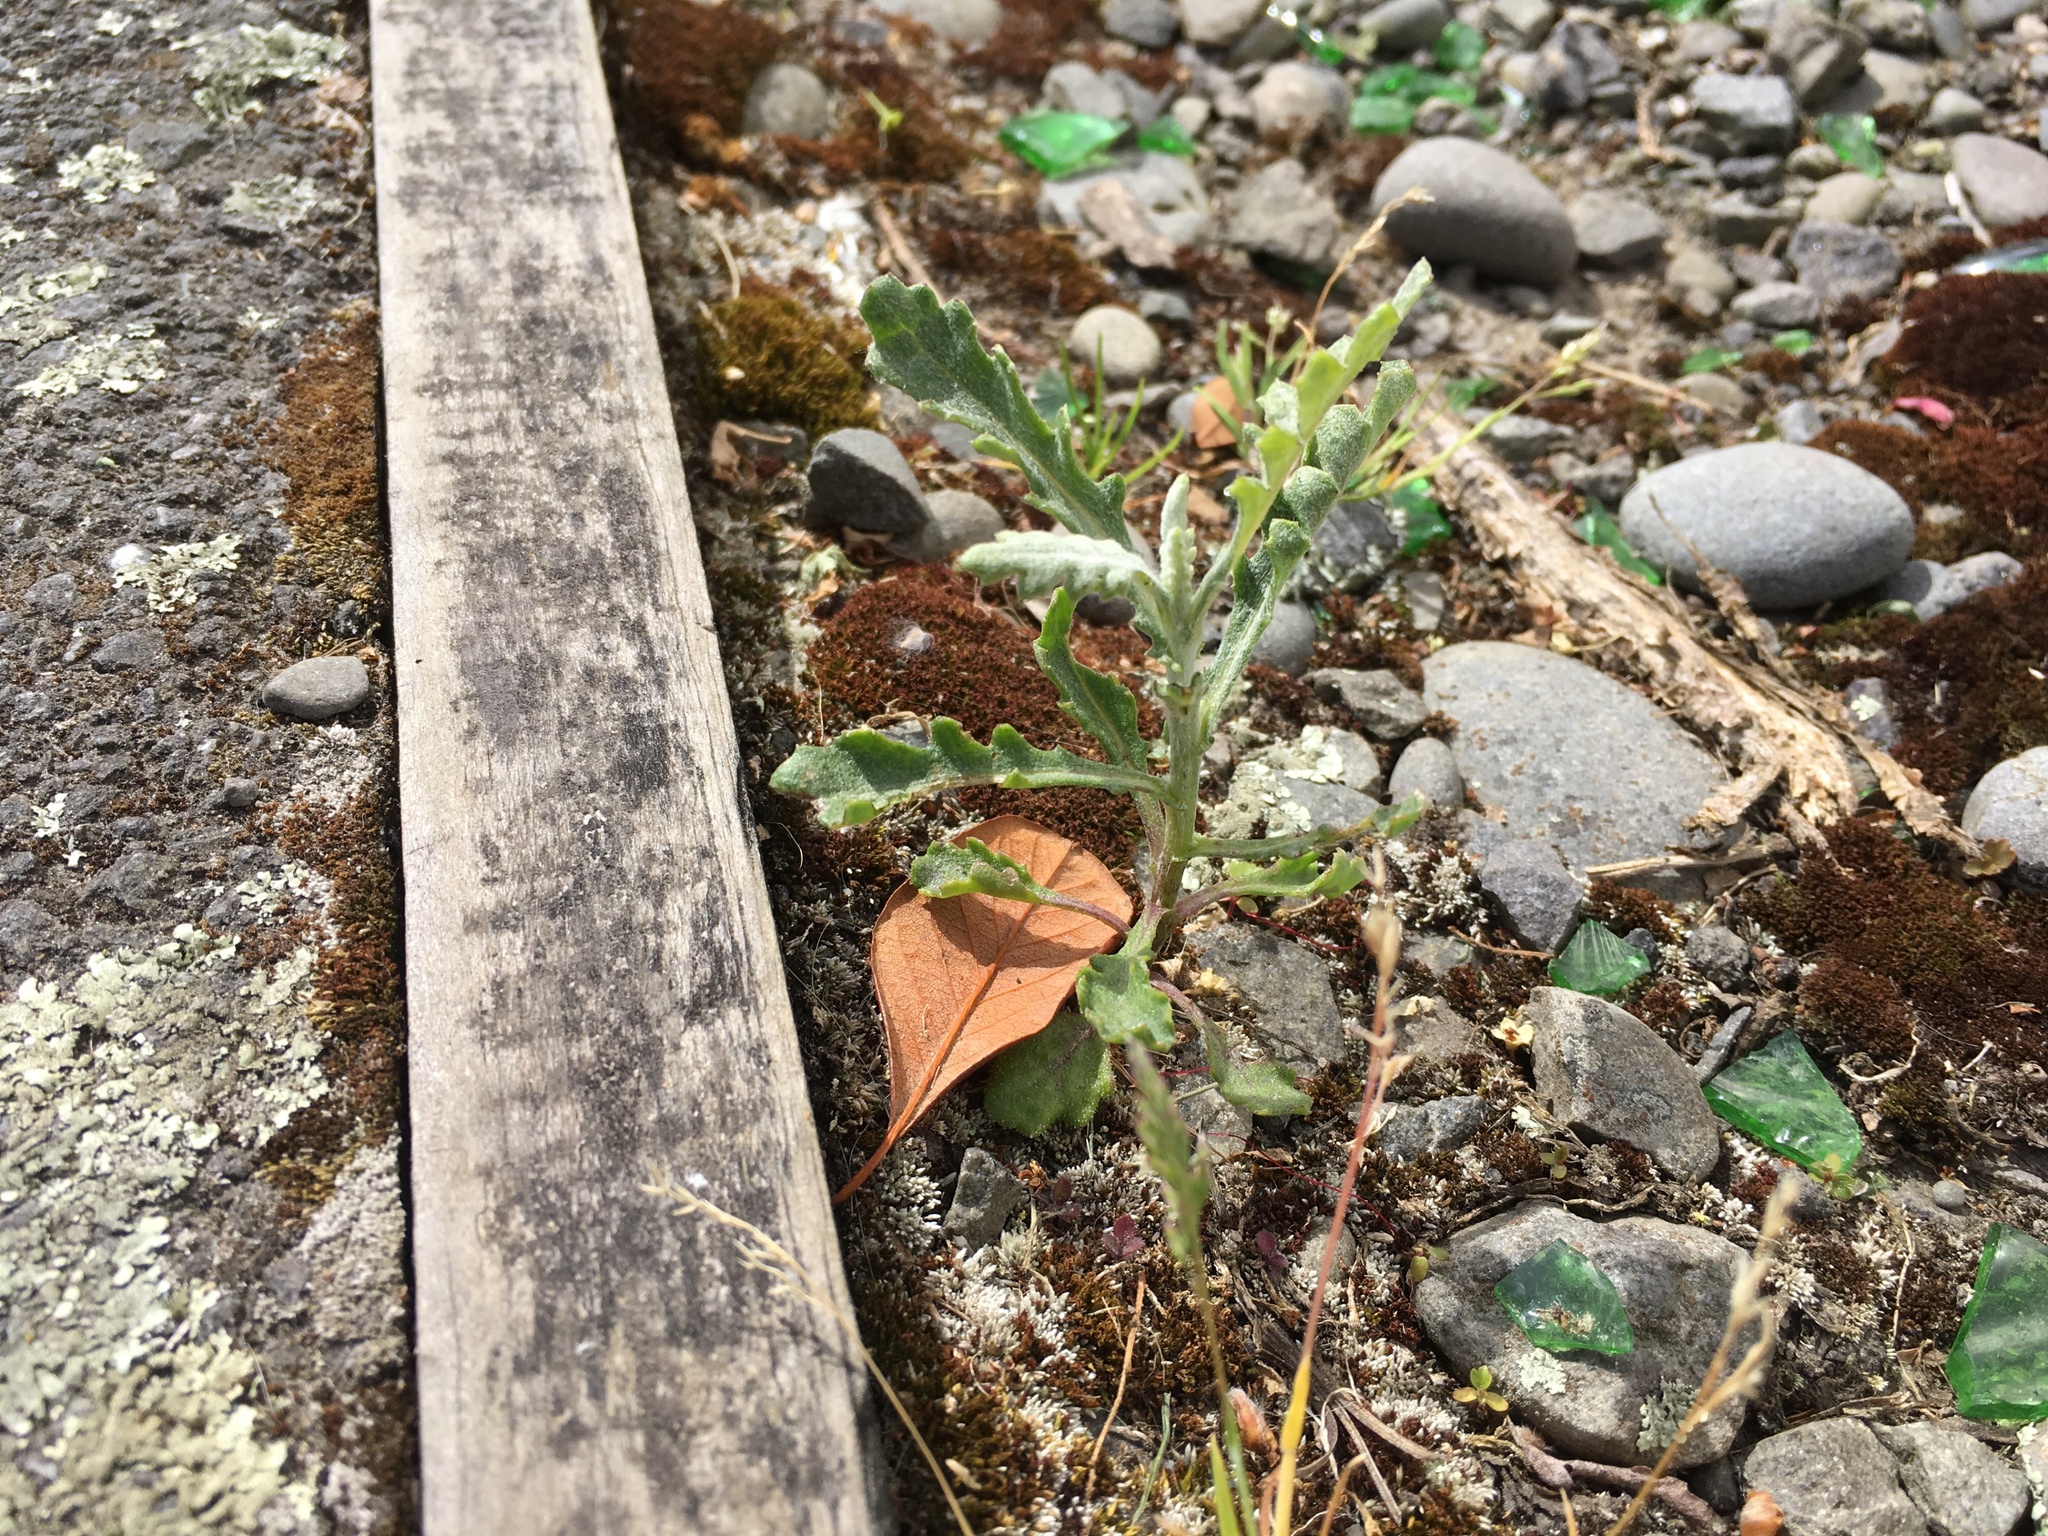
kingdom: Plantae
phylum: Tracheophyta
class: Magnoliopsida
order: Asterales
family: Asteraceae
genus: Senecio
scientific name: Senecio glomeratus
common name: Cutleaf burnweed
